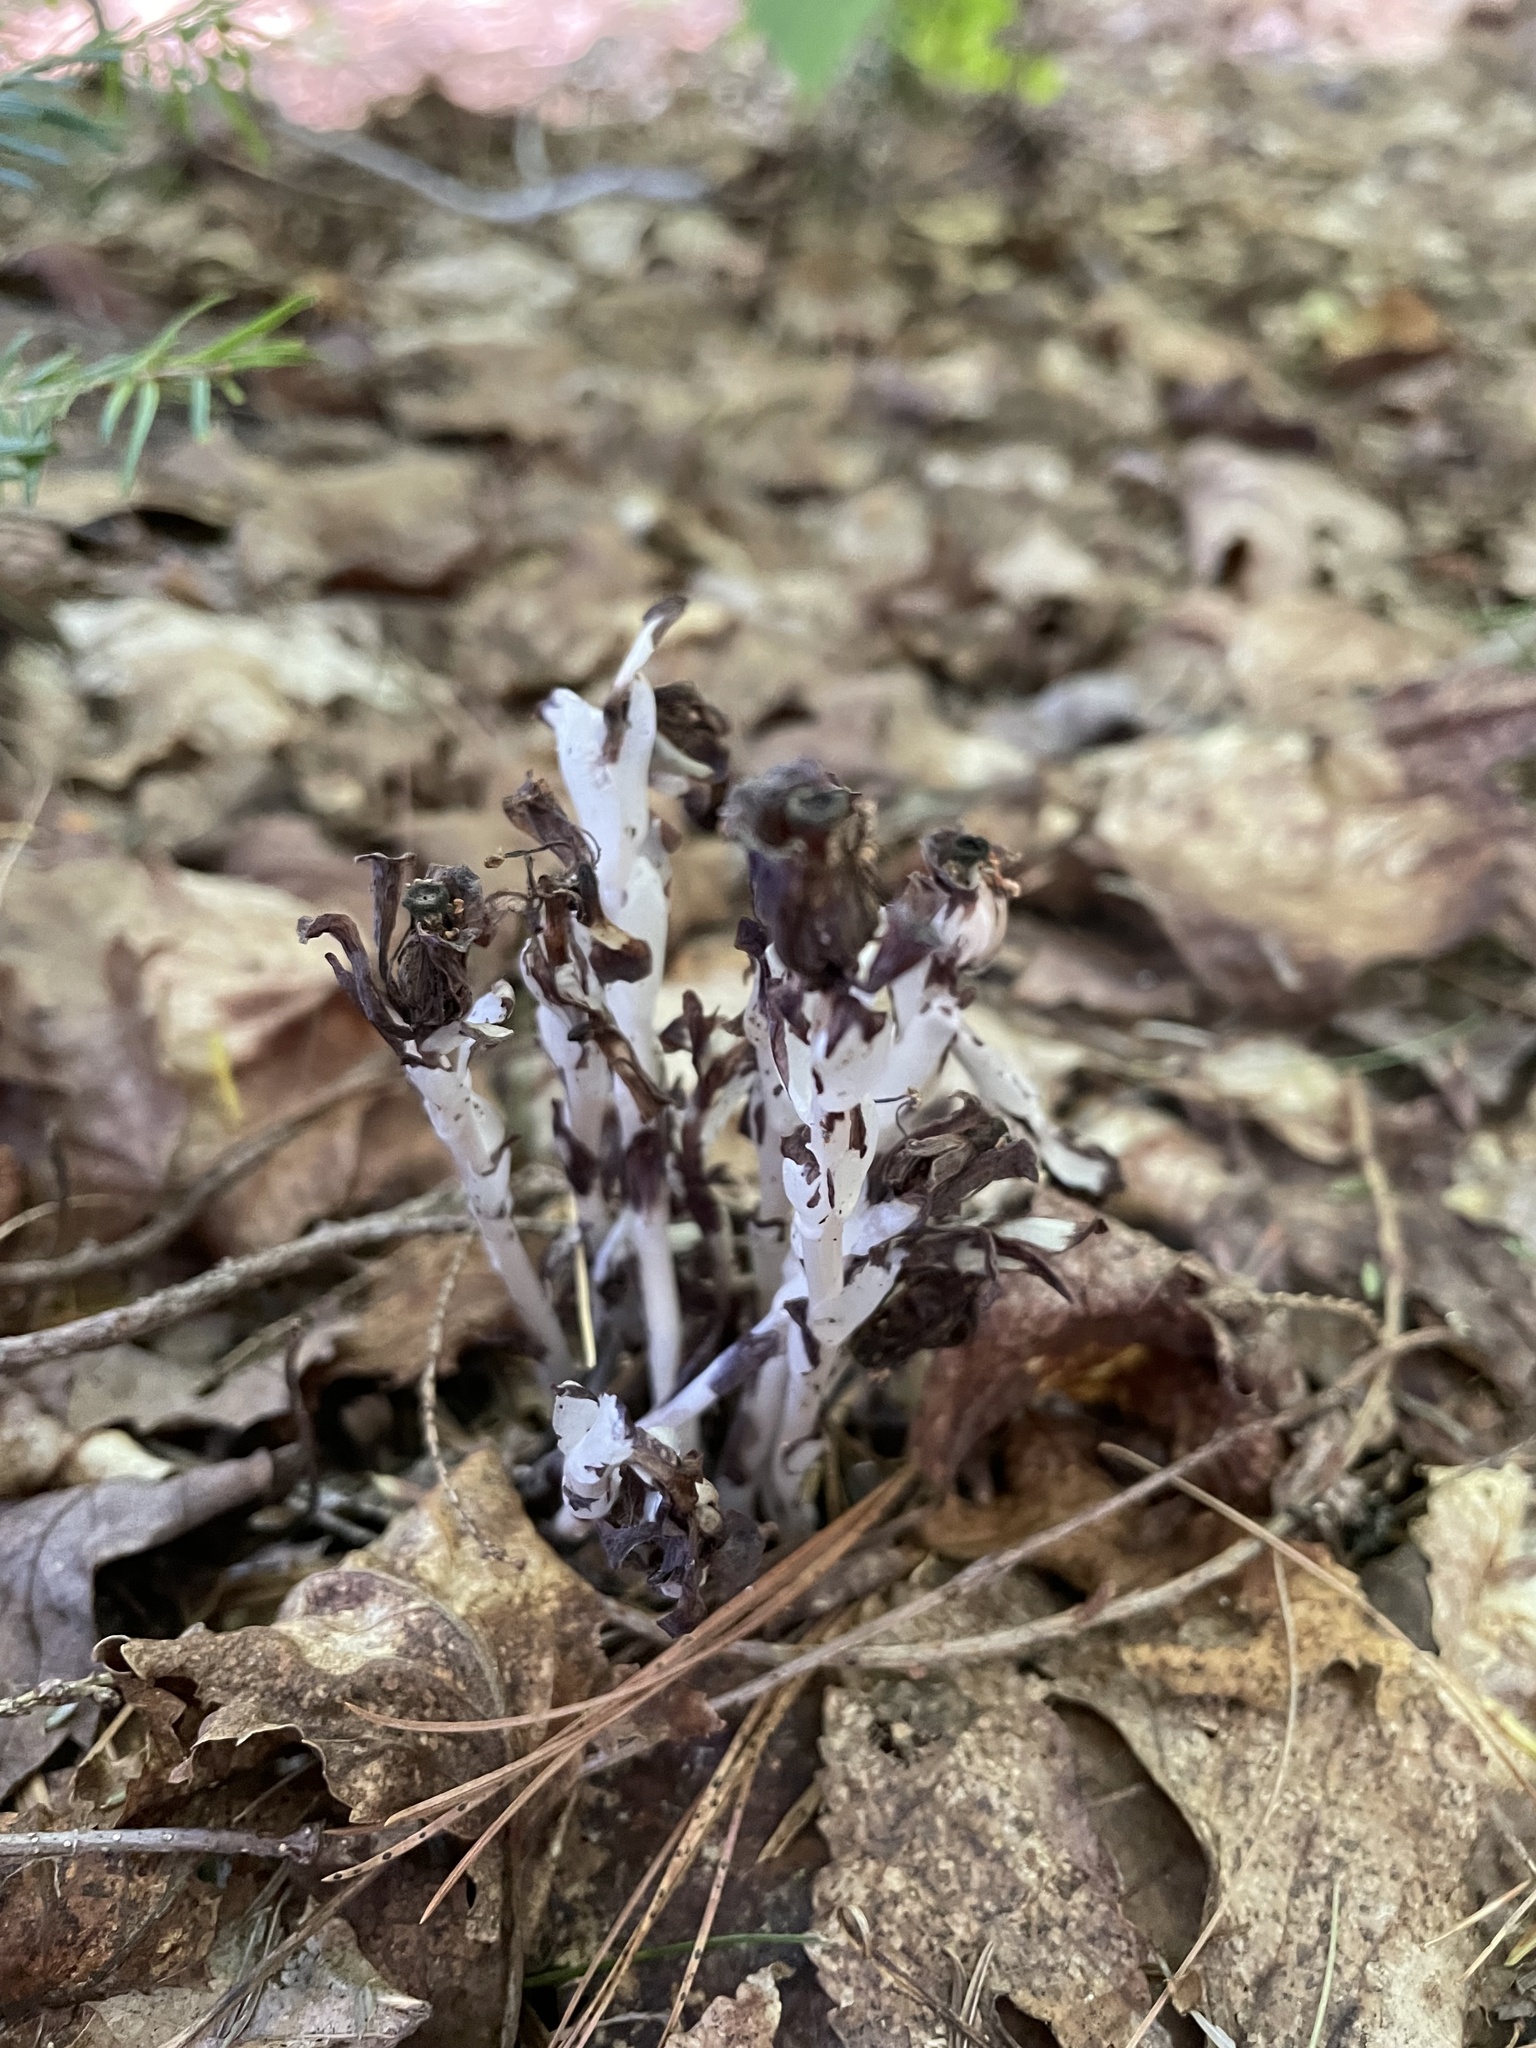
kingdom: Plantae
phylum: Tracheophyta
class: Magnoliopsida
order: Ericales
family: Ericaceae
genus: Monotropa
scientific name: Monotropa uniflora
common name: Convulsion root
